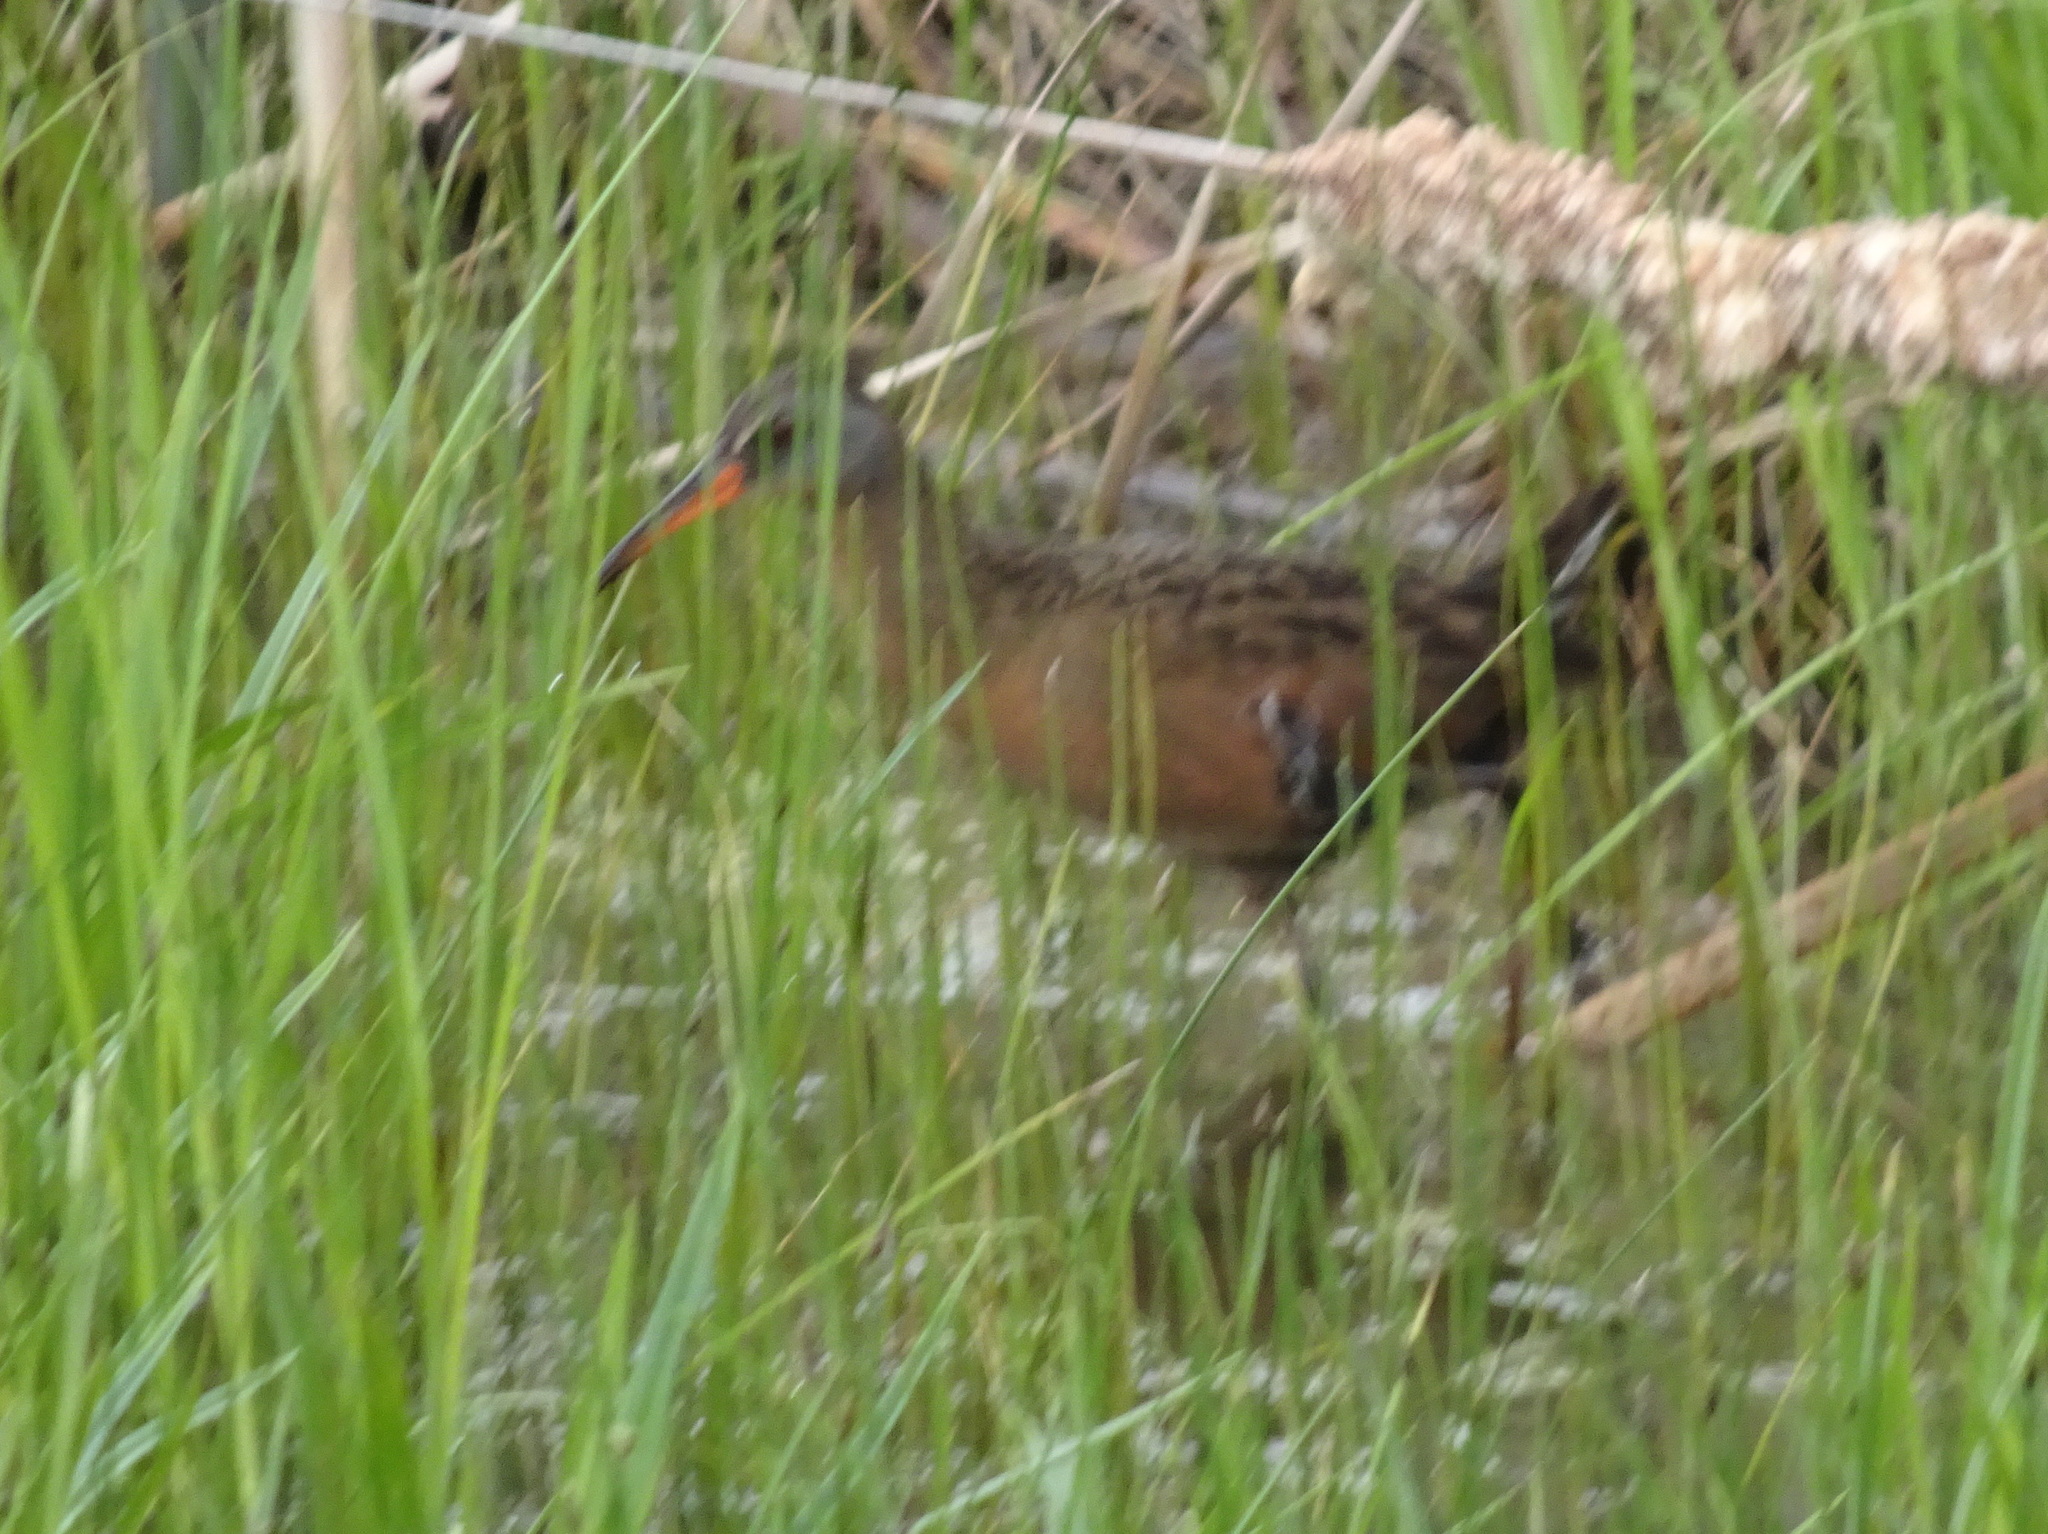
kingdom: Animalia
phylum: Chordata
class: Aves
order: Gruiformes
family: Rallidae
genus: Rallus
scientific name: Rallus limicola
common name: Virginia rail
